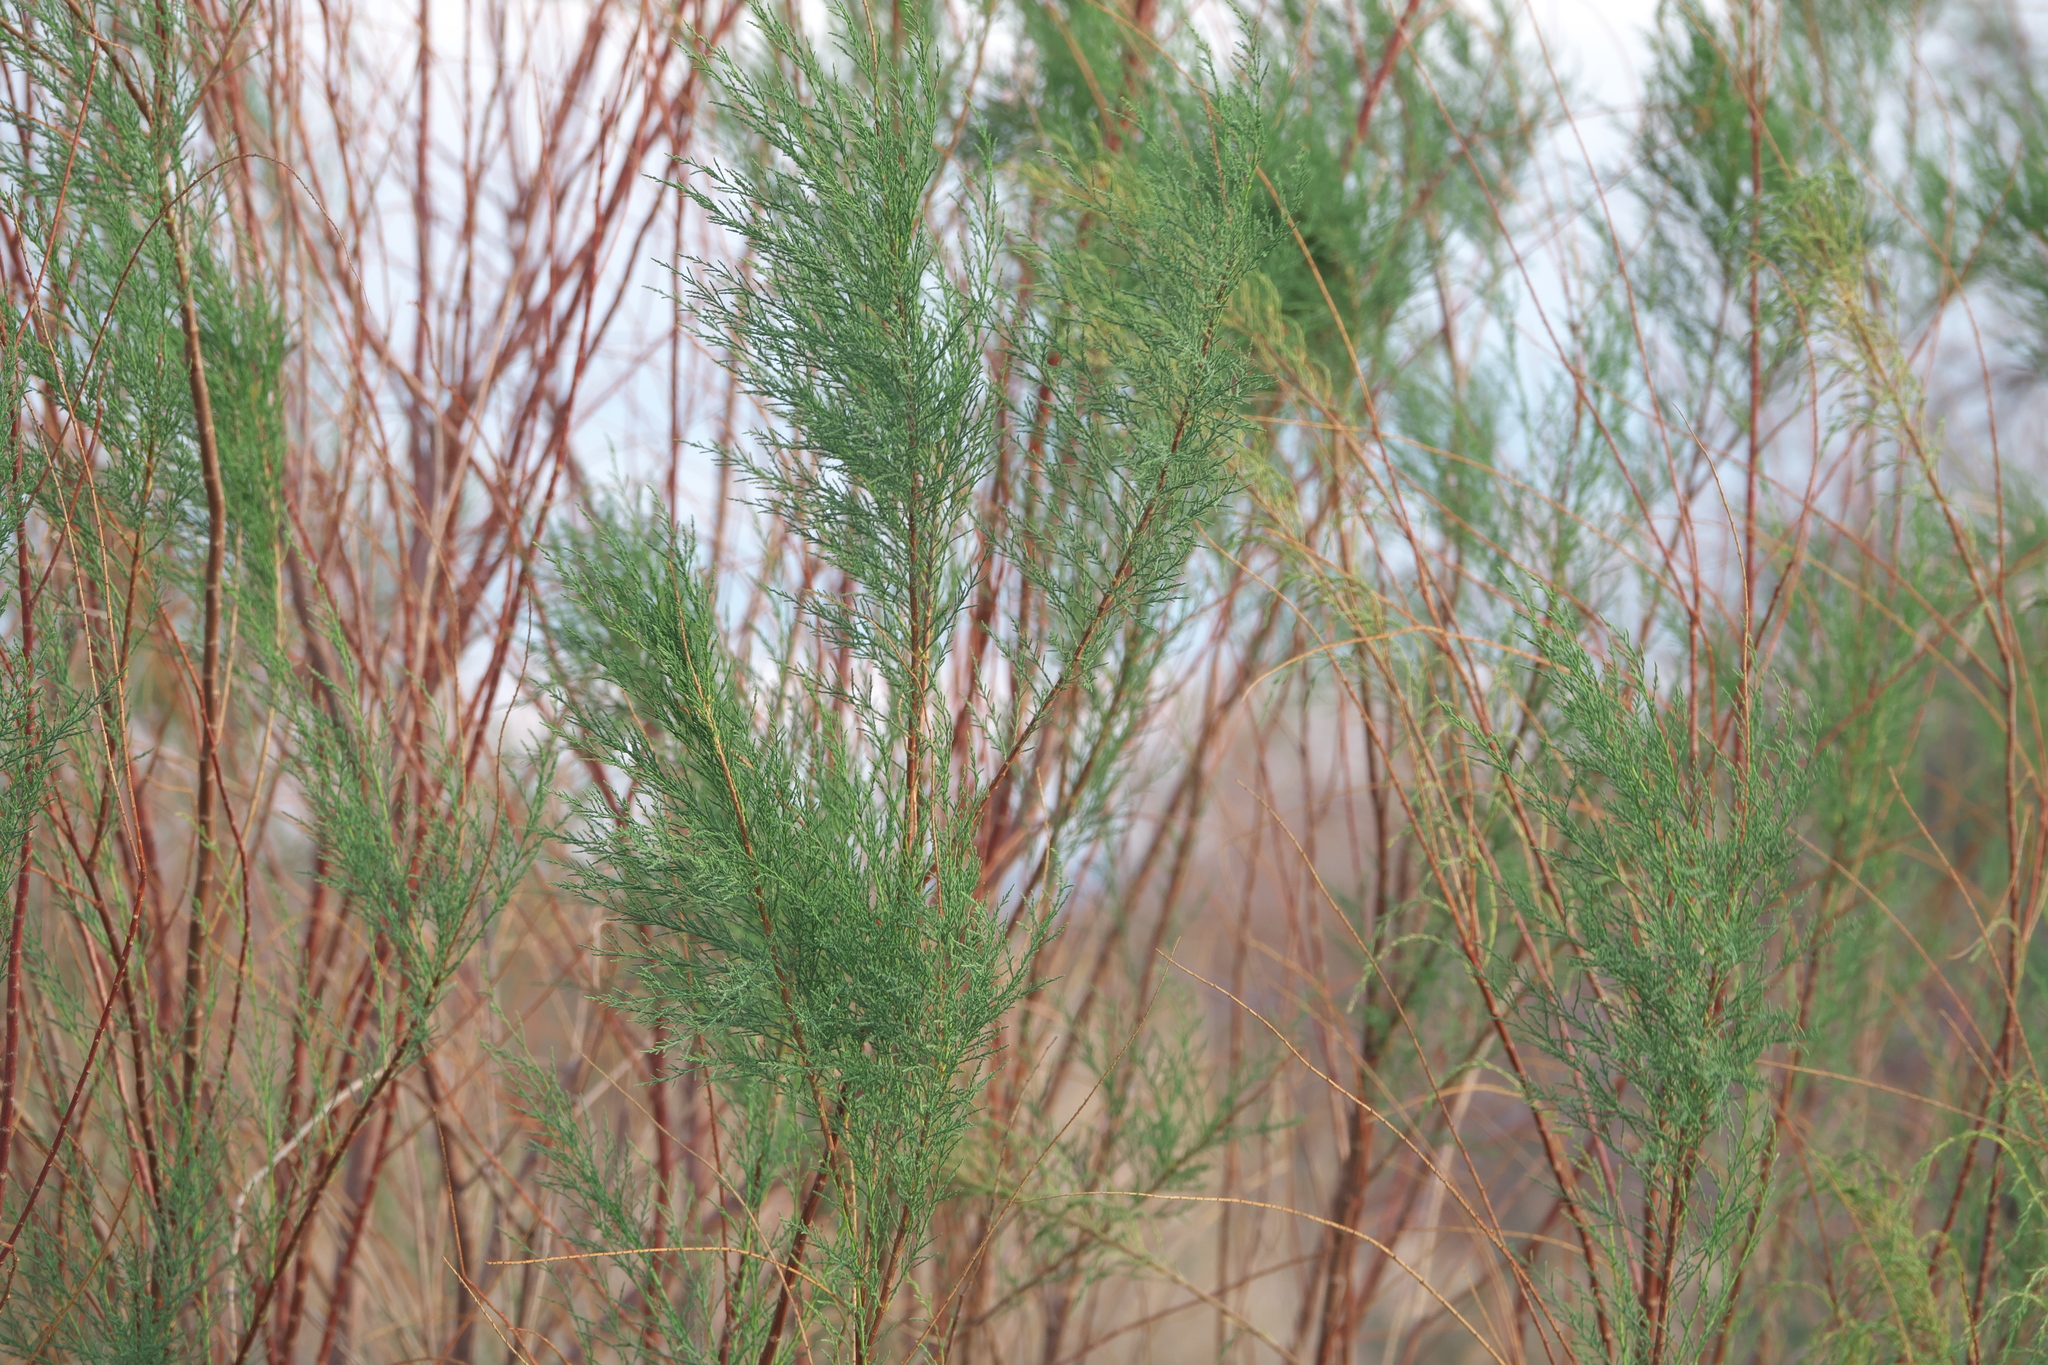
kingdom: Plantae
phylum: Tracheophyta
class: Magnoliopsida
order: Caryophyllales
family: Tamaricaceae
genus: Tamarix
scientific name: Tamarix
